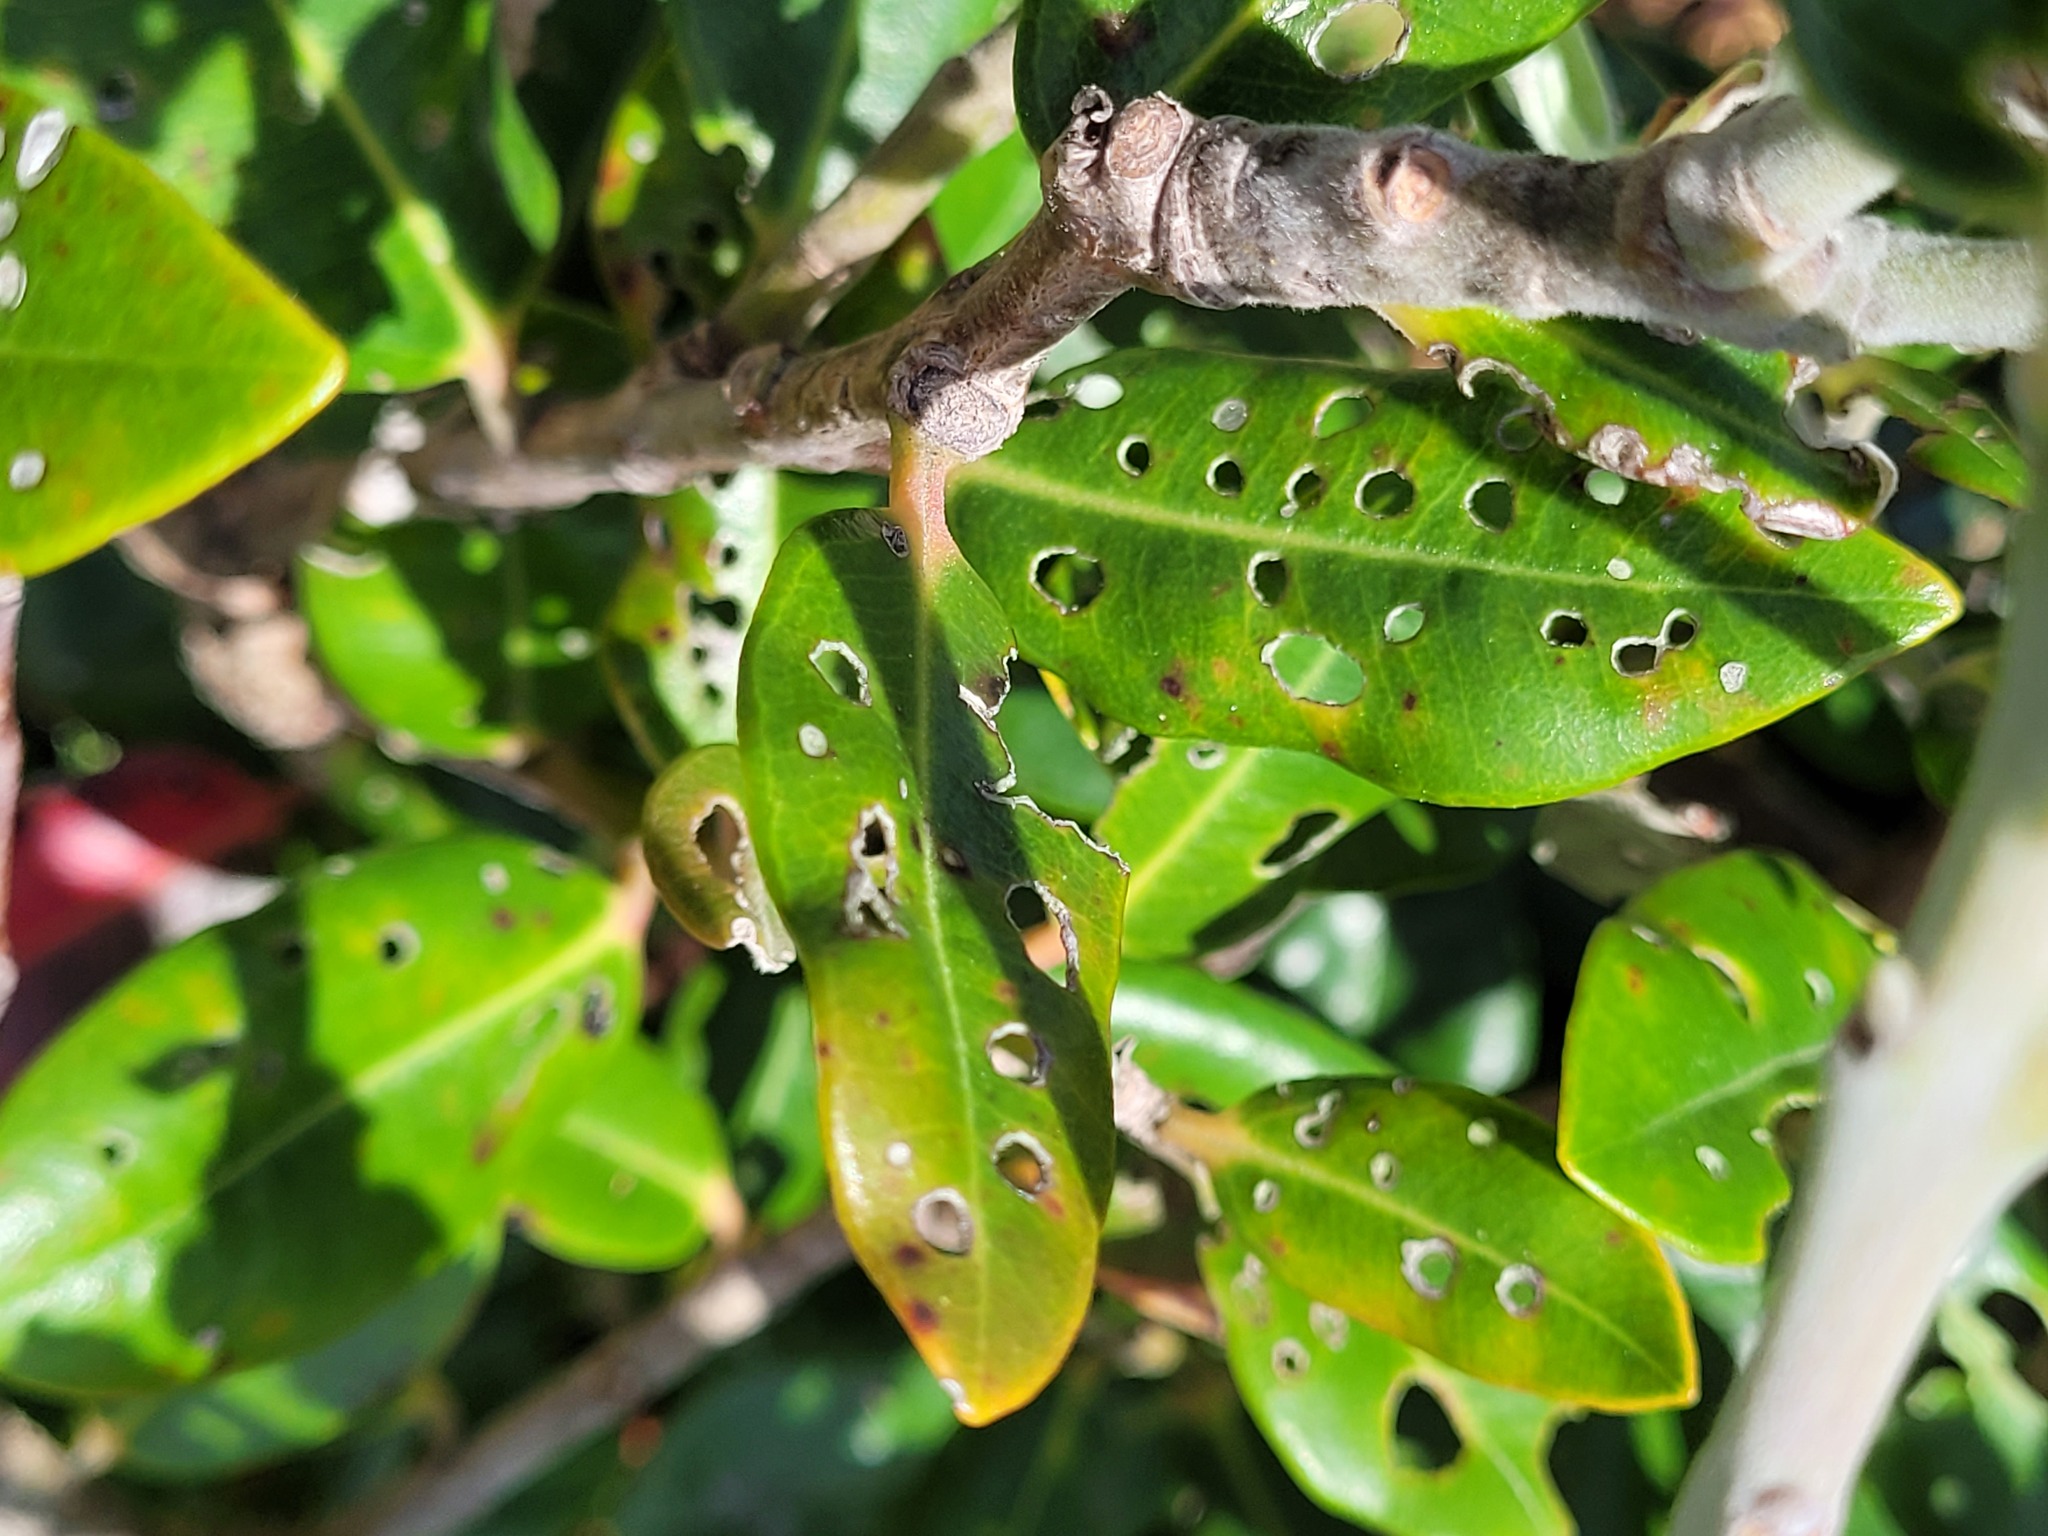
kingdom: Animalia
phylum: Arthropoda
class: Insecta
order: Coleoptera
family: Curculionidae
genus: Neomycta
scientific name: Neomycta rubida
